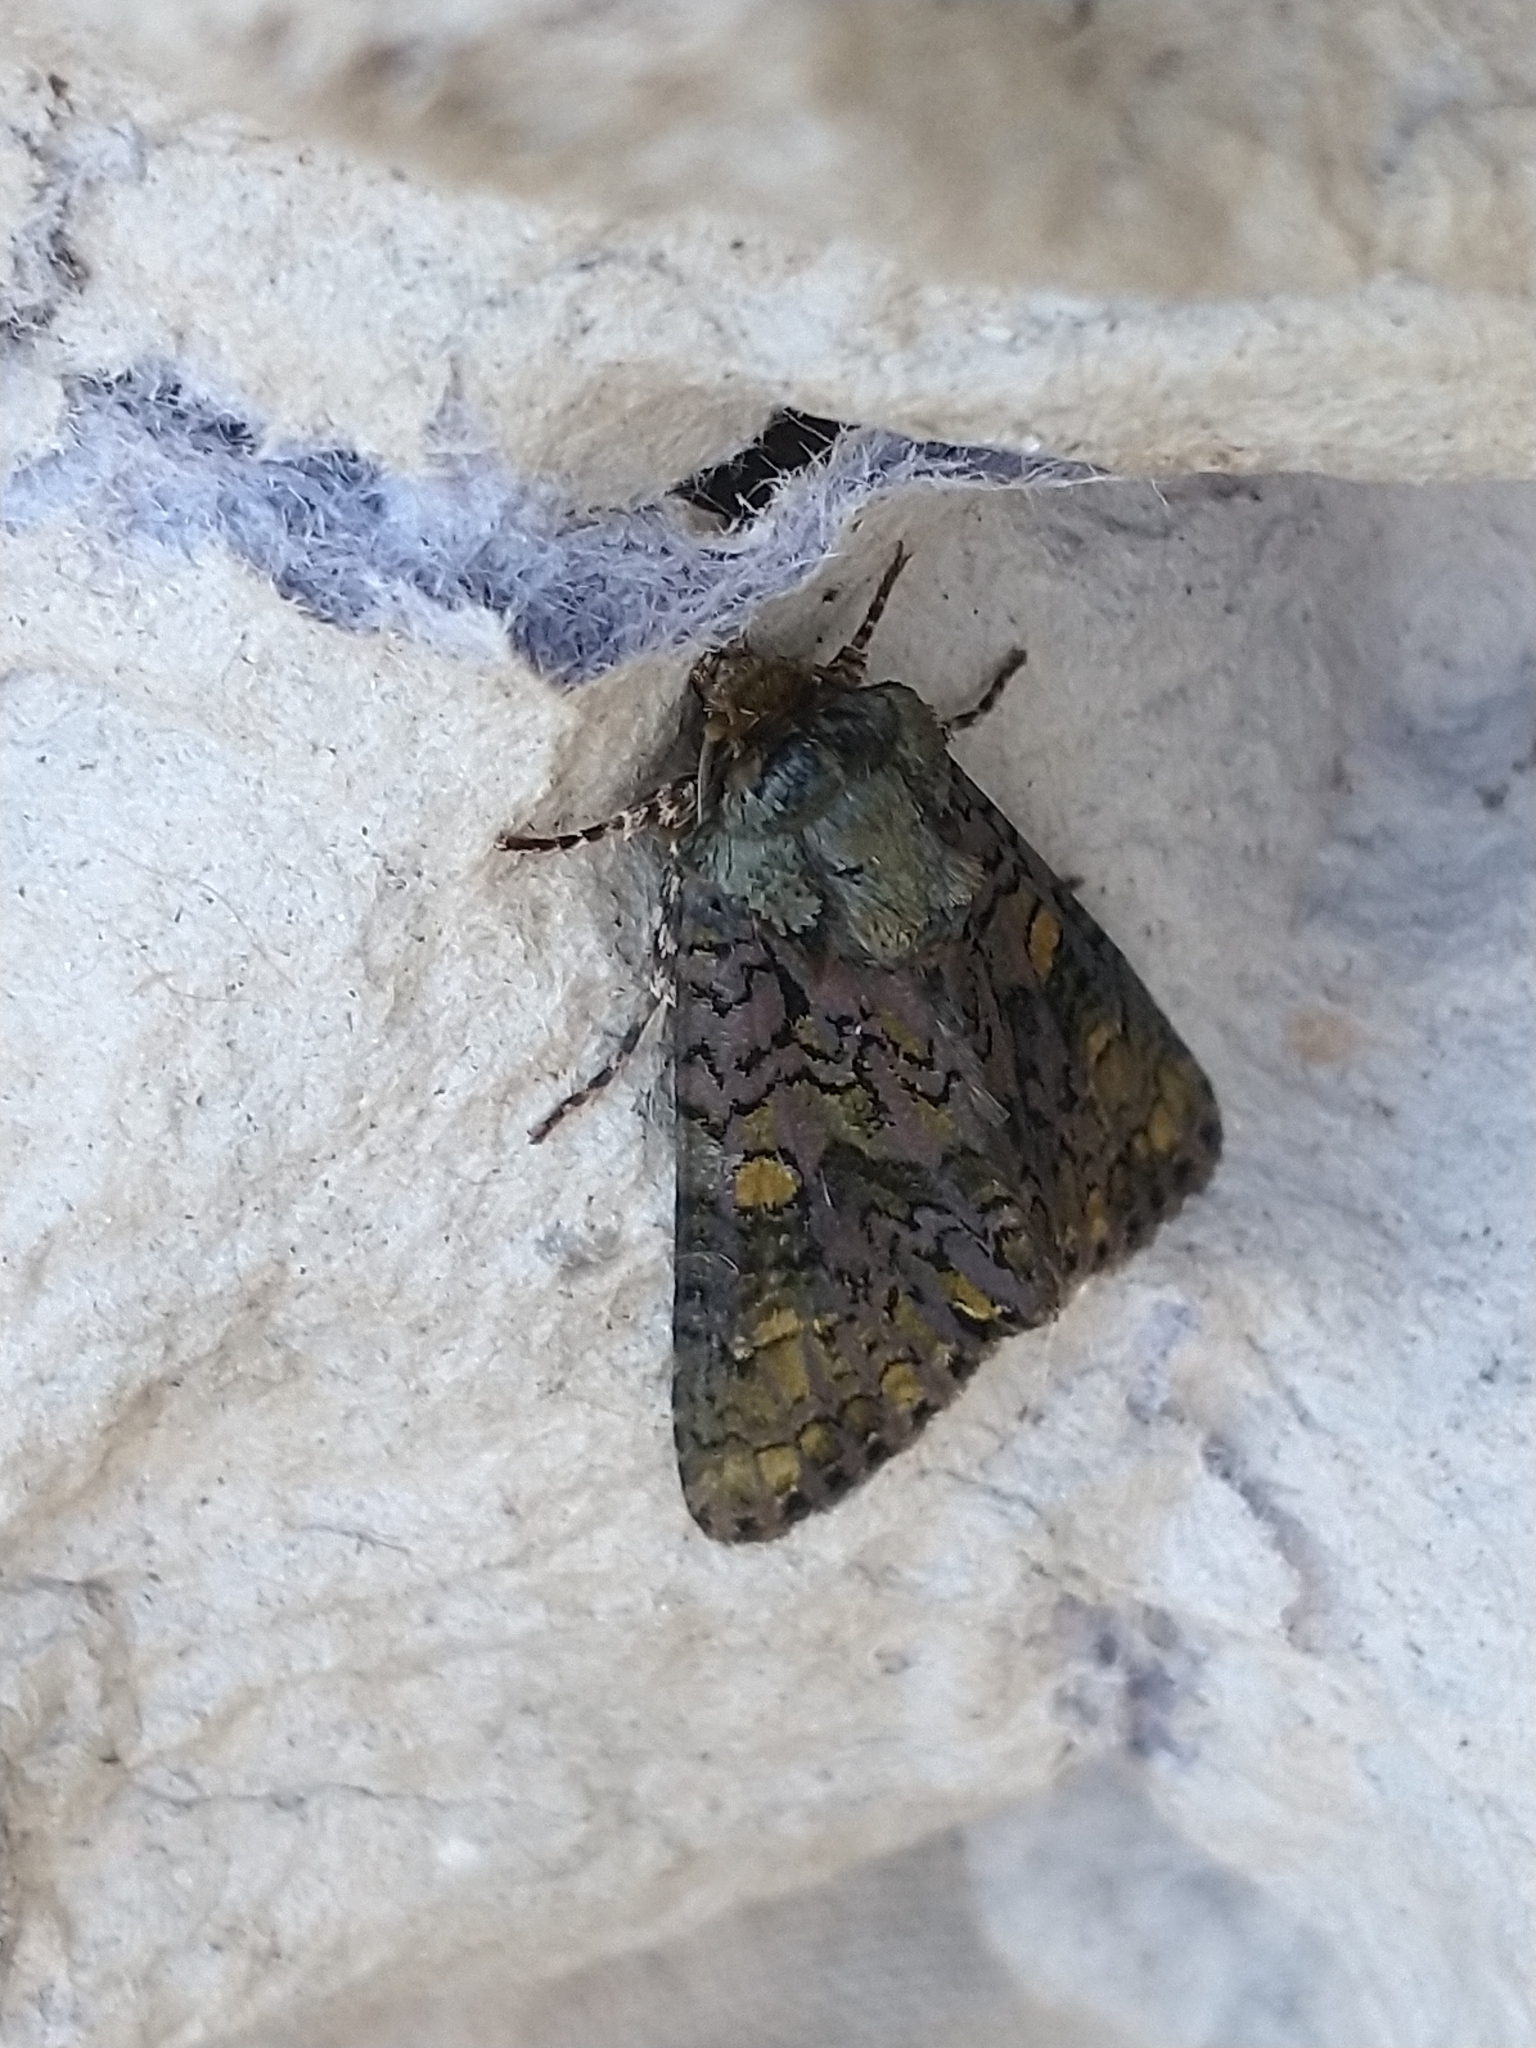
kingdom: Animalia
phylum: Arthropoda
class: Insecta
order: Lepidoptera
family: Noctuidae
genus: Craniophora
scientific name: Craniophora ligustri
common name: Coronet
